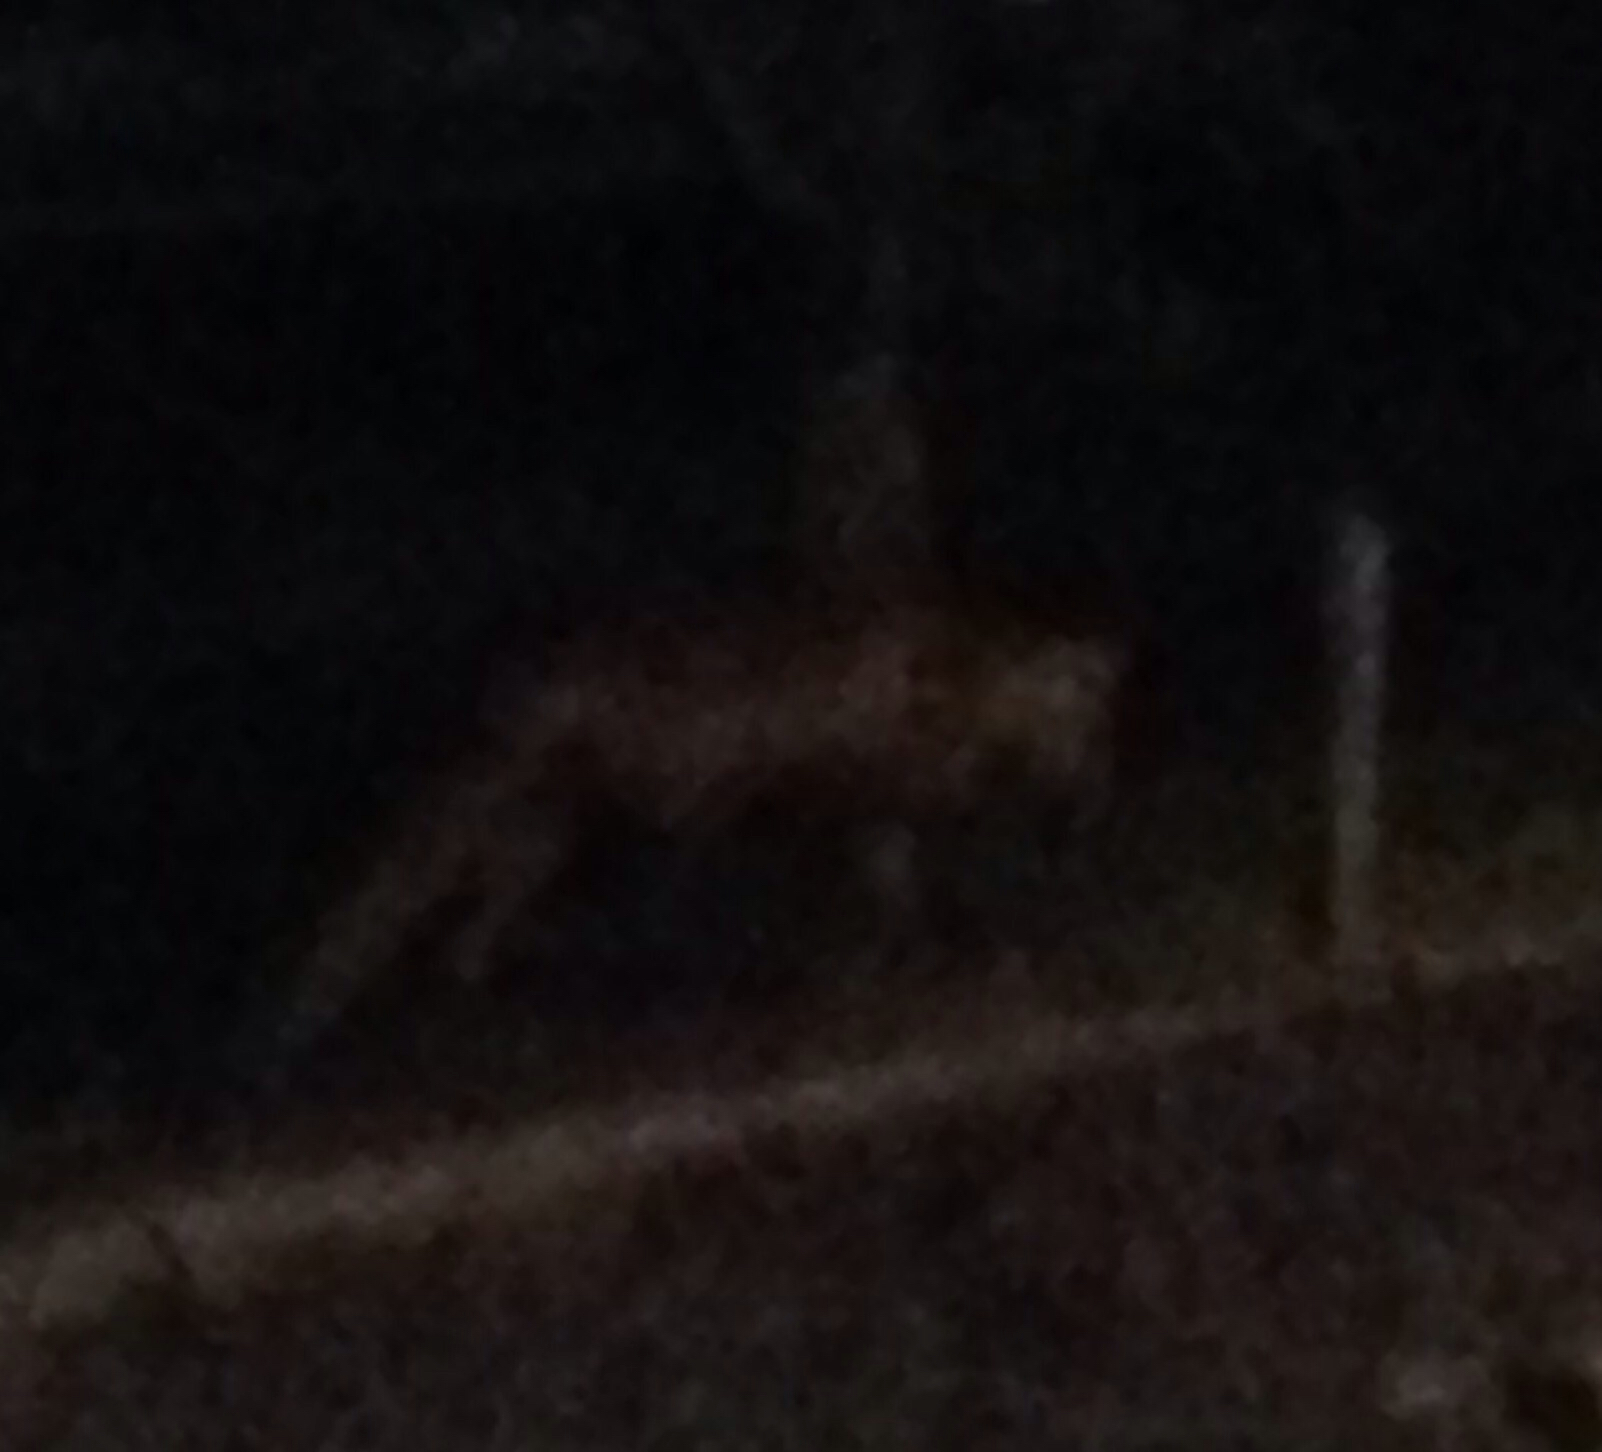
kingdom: Animalia
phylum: Chordata
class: Mammalia
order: Carnivora
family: Canidae
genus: Vulpes
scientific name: Vulpes vulpes
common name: Red fox
